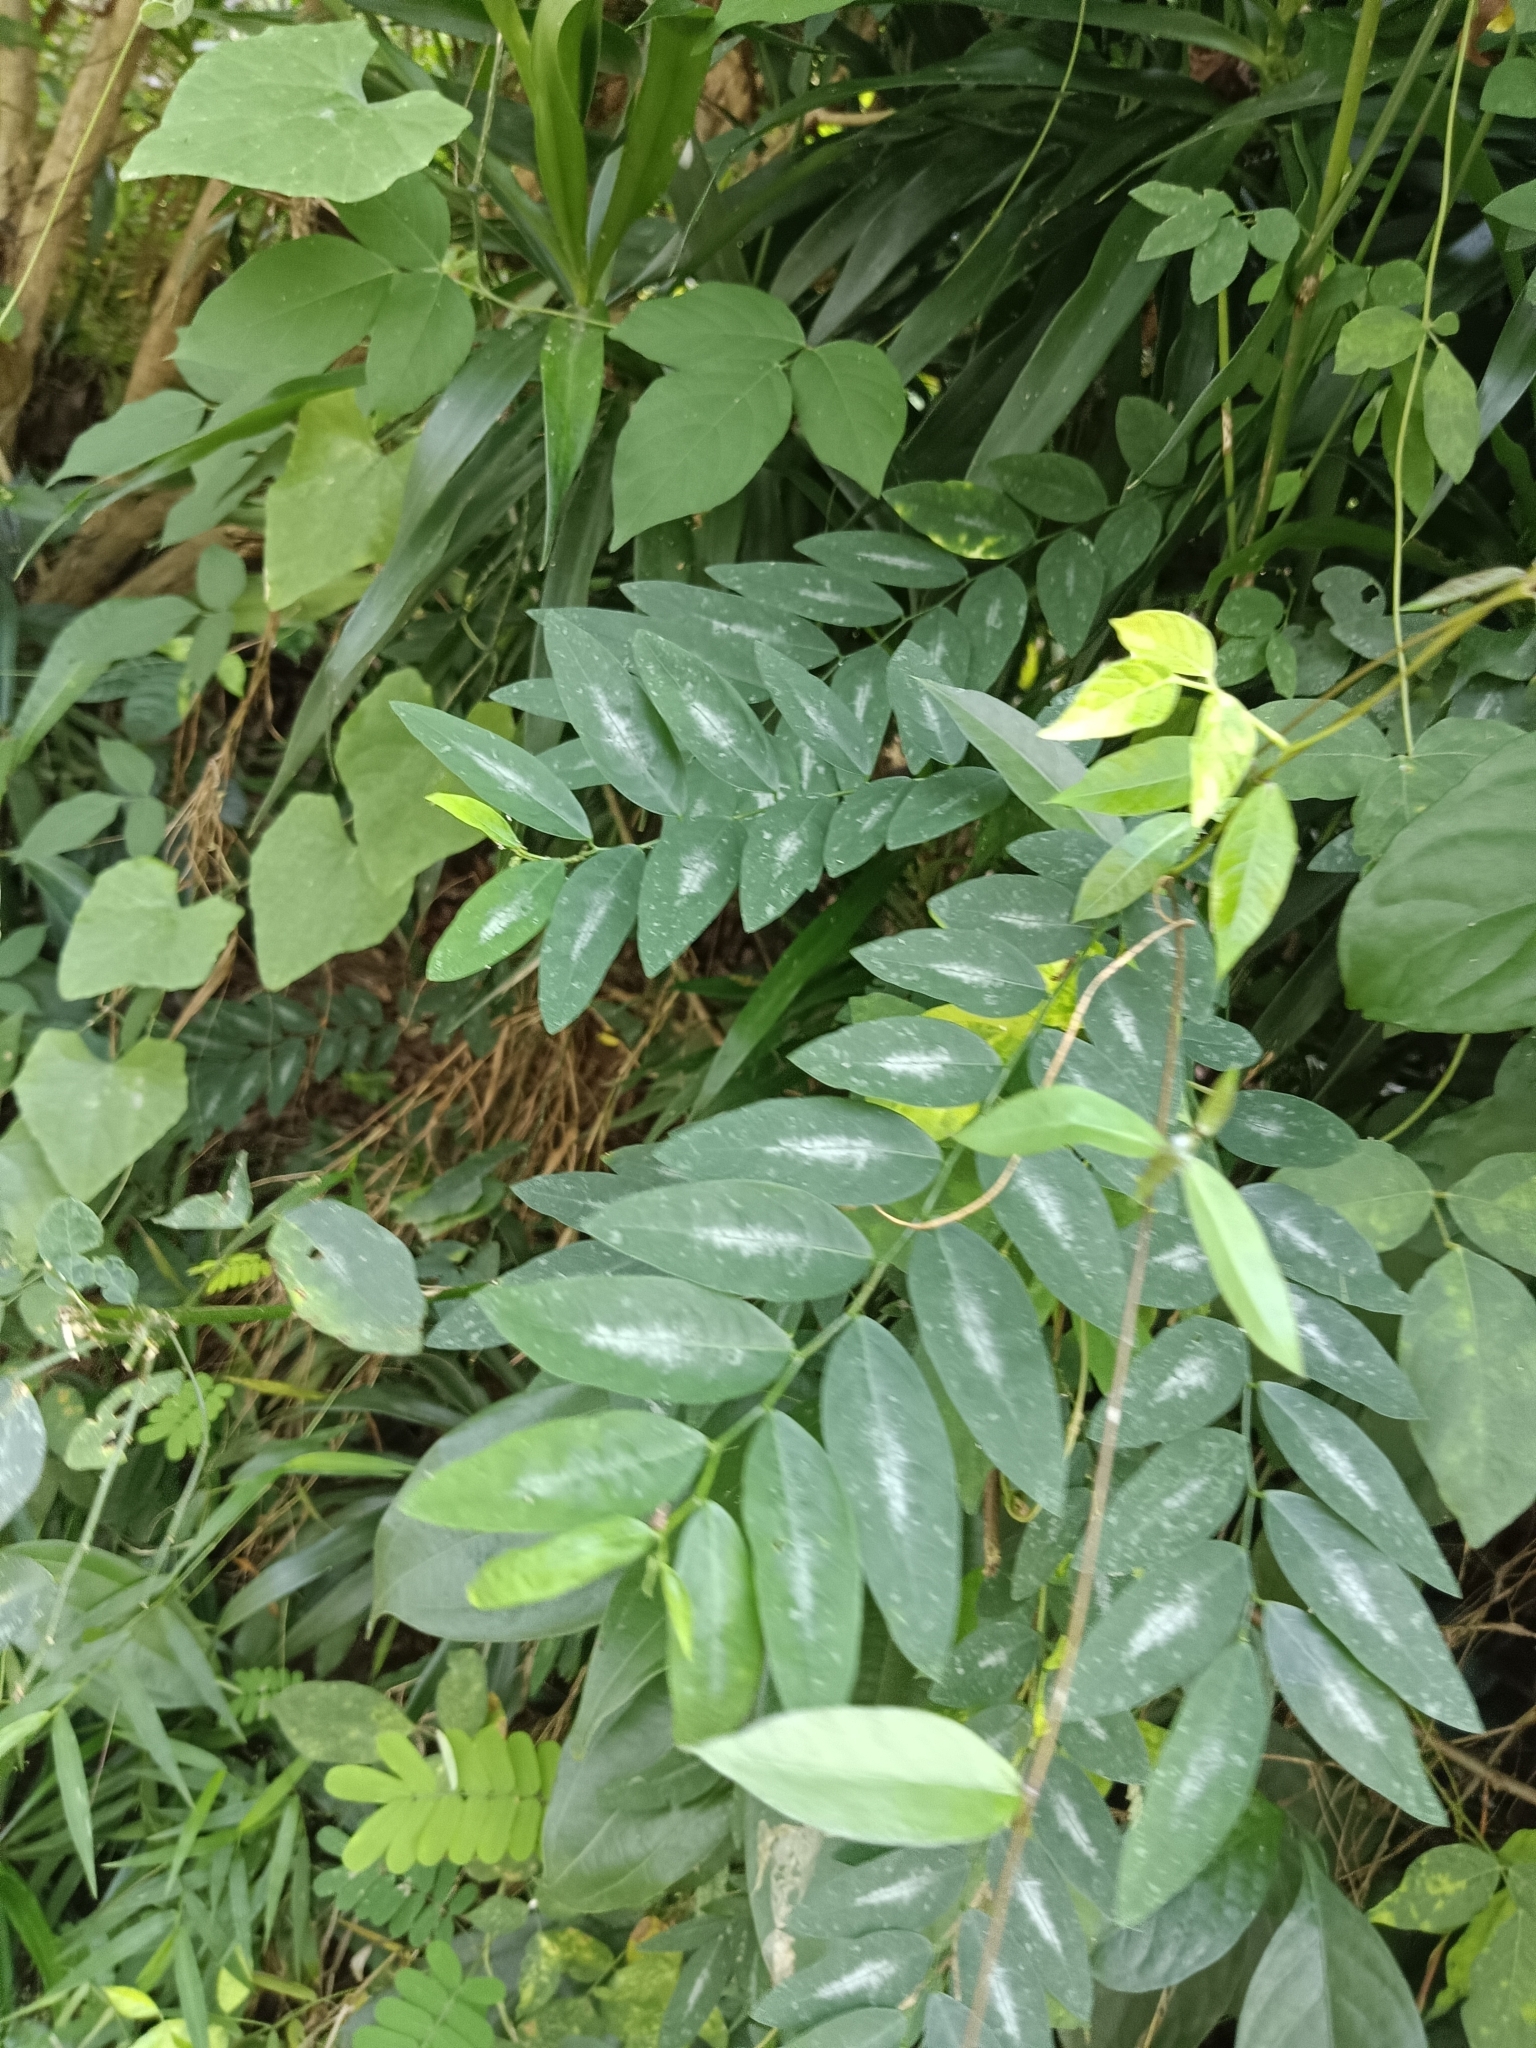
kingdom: Plantae
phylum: Tracheophyta
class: Magnoliopsida
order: Malpighiales
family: Phyllanthaceae
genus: Breynia
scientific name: Breynia androgyna
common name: Star gooseberry
